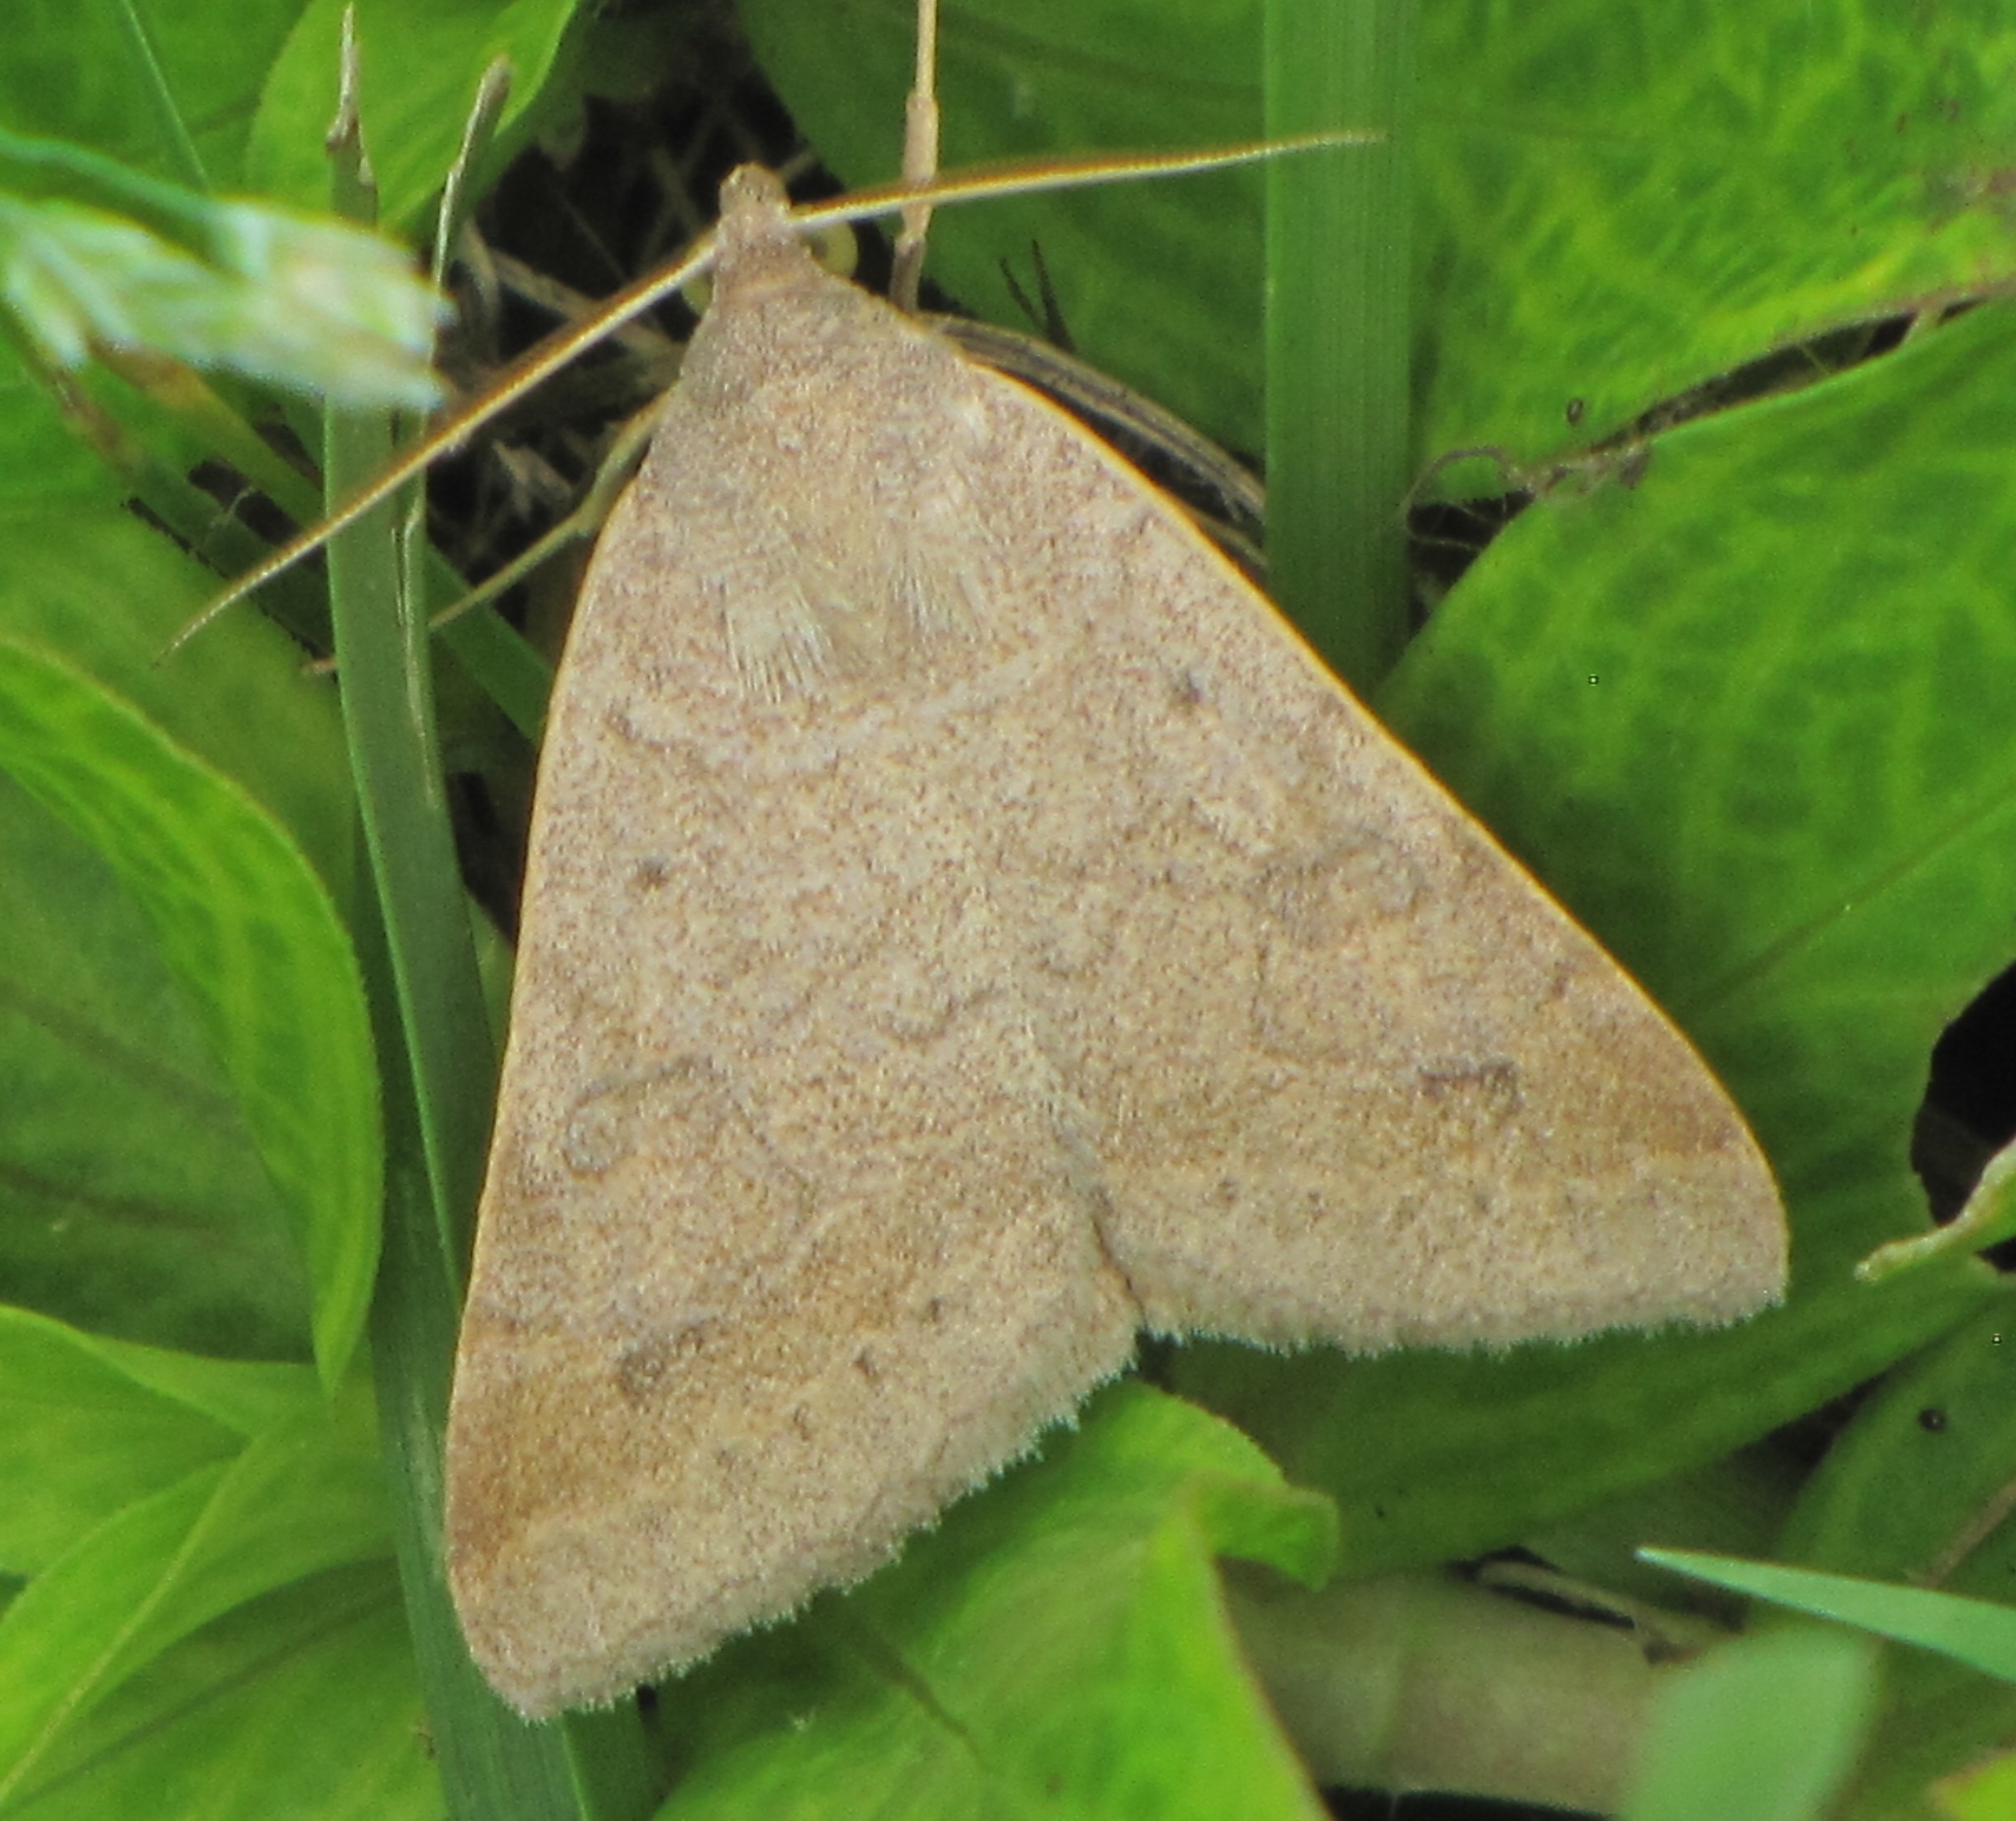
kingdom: Animalia
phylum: Arthropoda
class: Insecta
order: Lepidoptera
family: Erebidae
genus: Caenurgia
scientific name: Caenurgia chloropha
